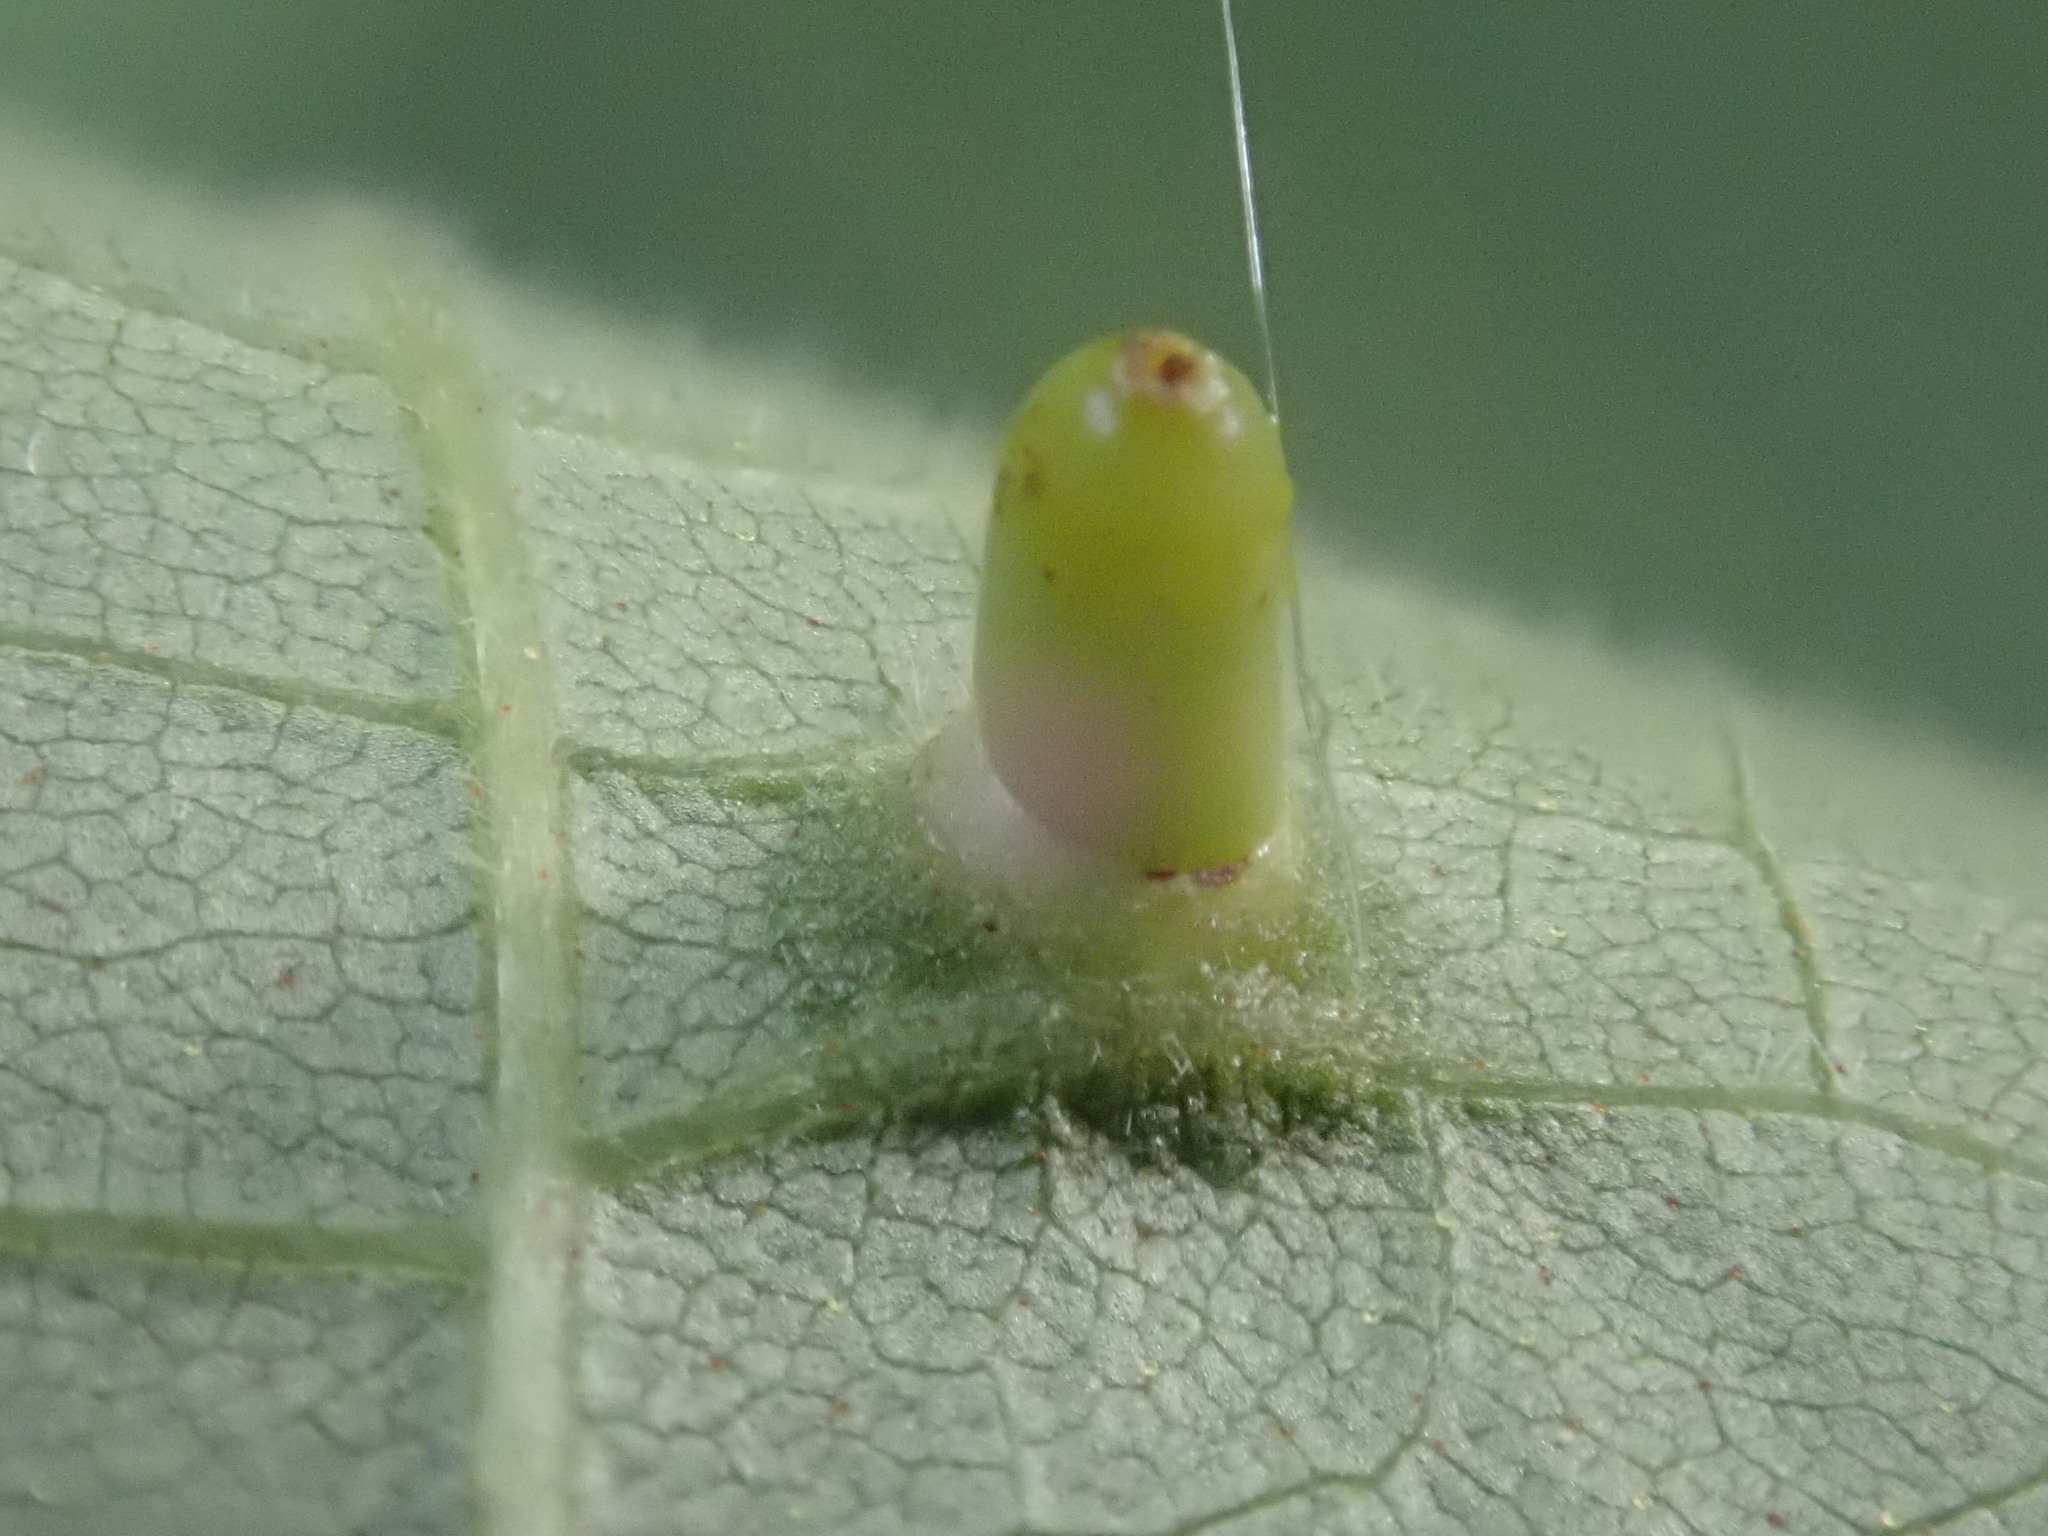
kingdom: Animalia
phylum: Arthropoda
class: Insecta
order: Diptera
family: Cecidomyiidae
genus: Caryomyia
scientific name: Caryomyia tubicola
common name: Hickory bullet gall midge
